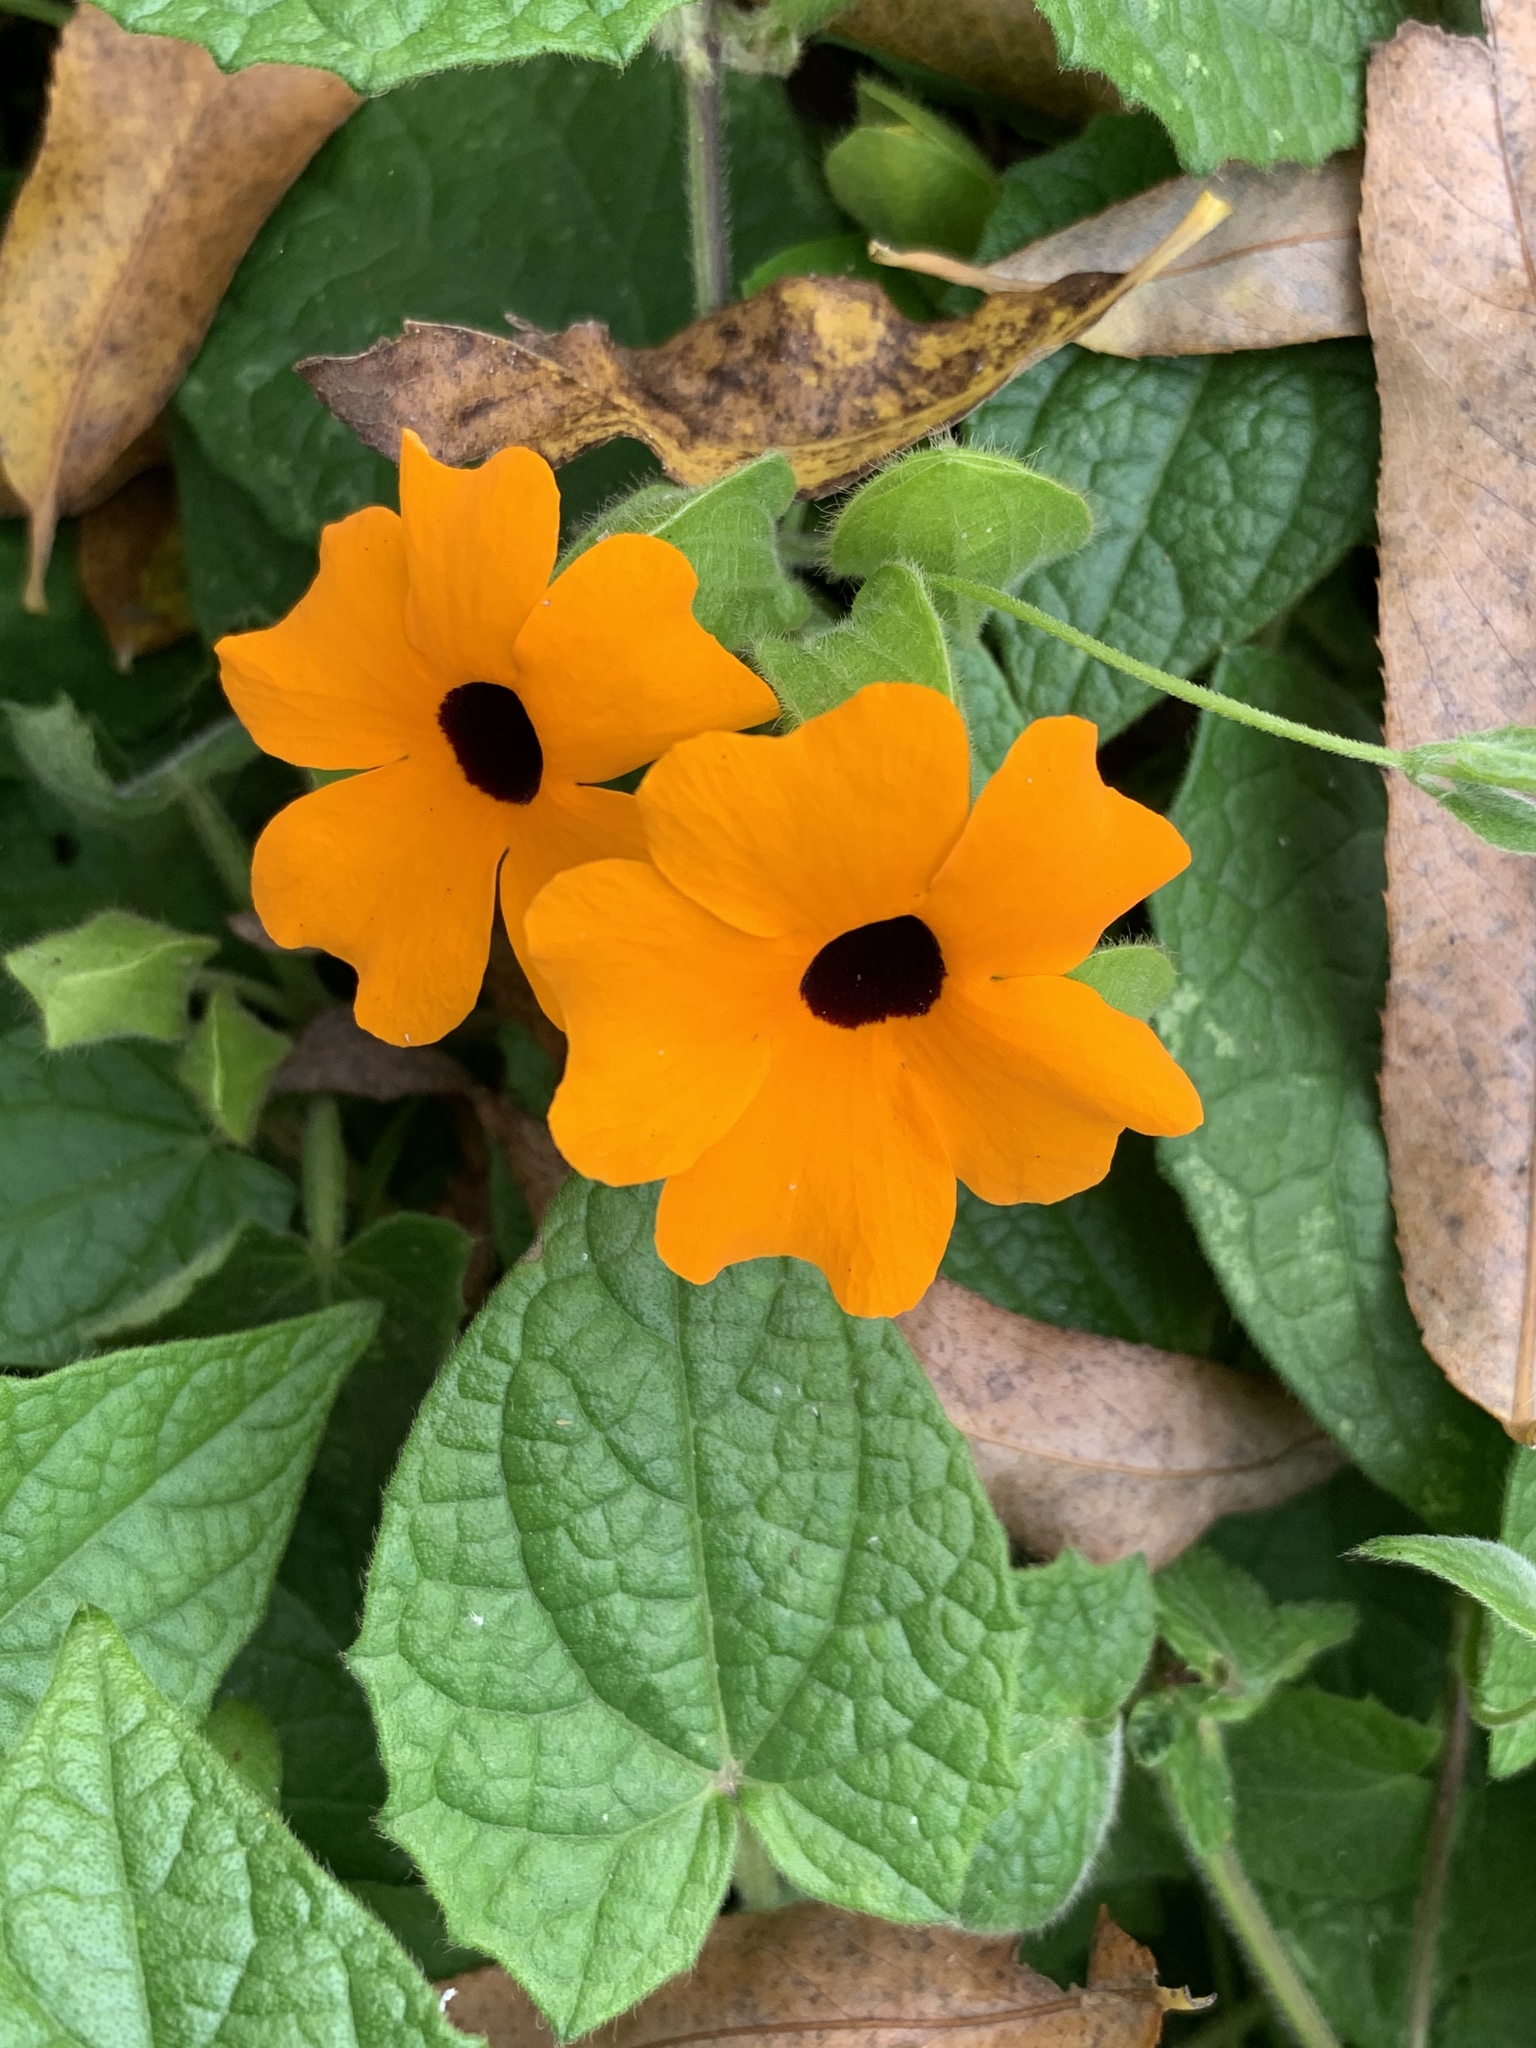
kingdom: Plantae
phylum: Tracheophyta
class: Magnoliopsida
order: Lamiales
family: Acanthaceae
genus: Thunbergia
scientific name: Thunbergia alata
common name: Blackeyed susan vine
